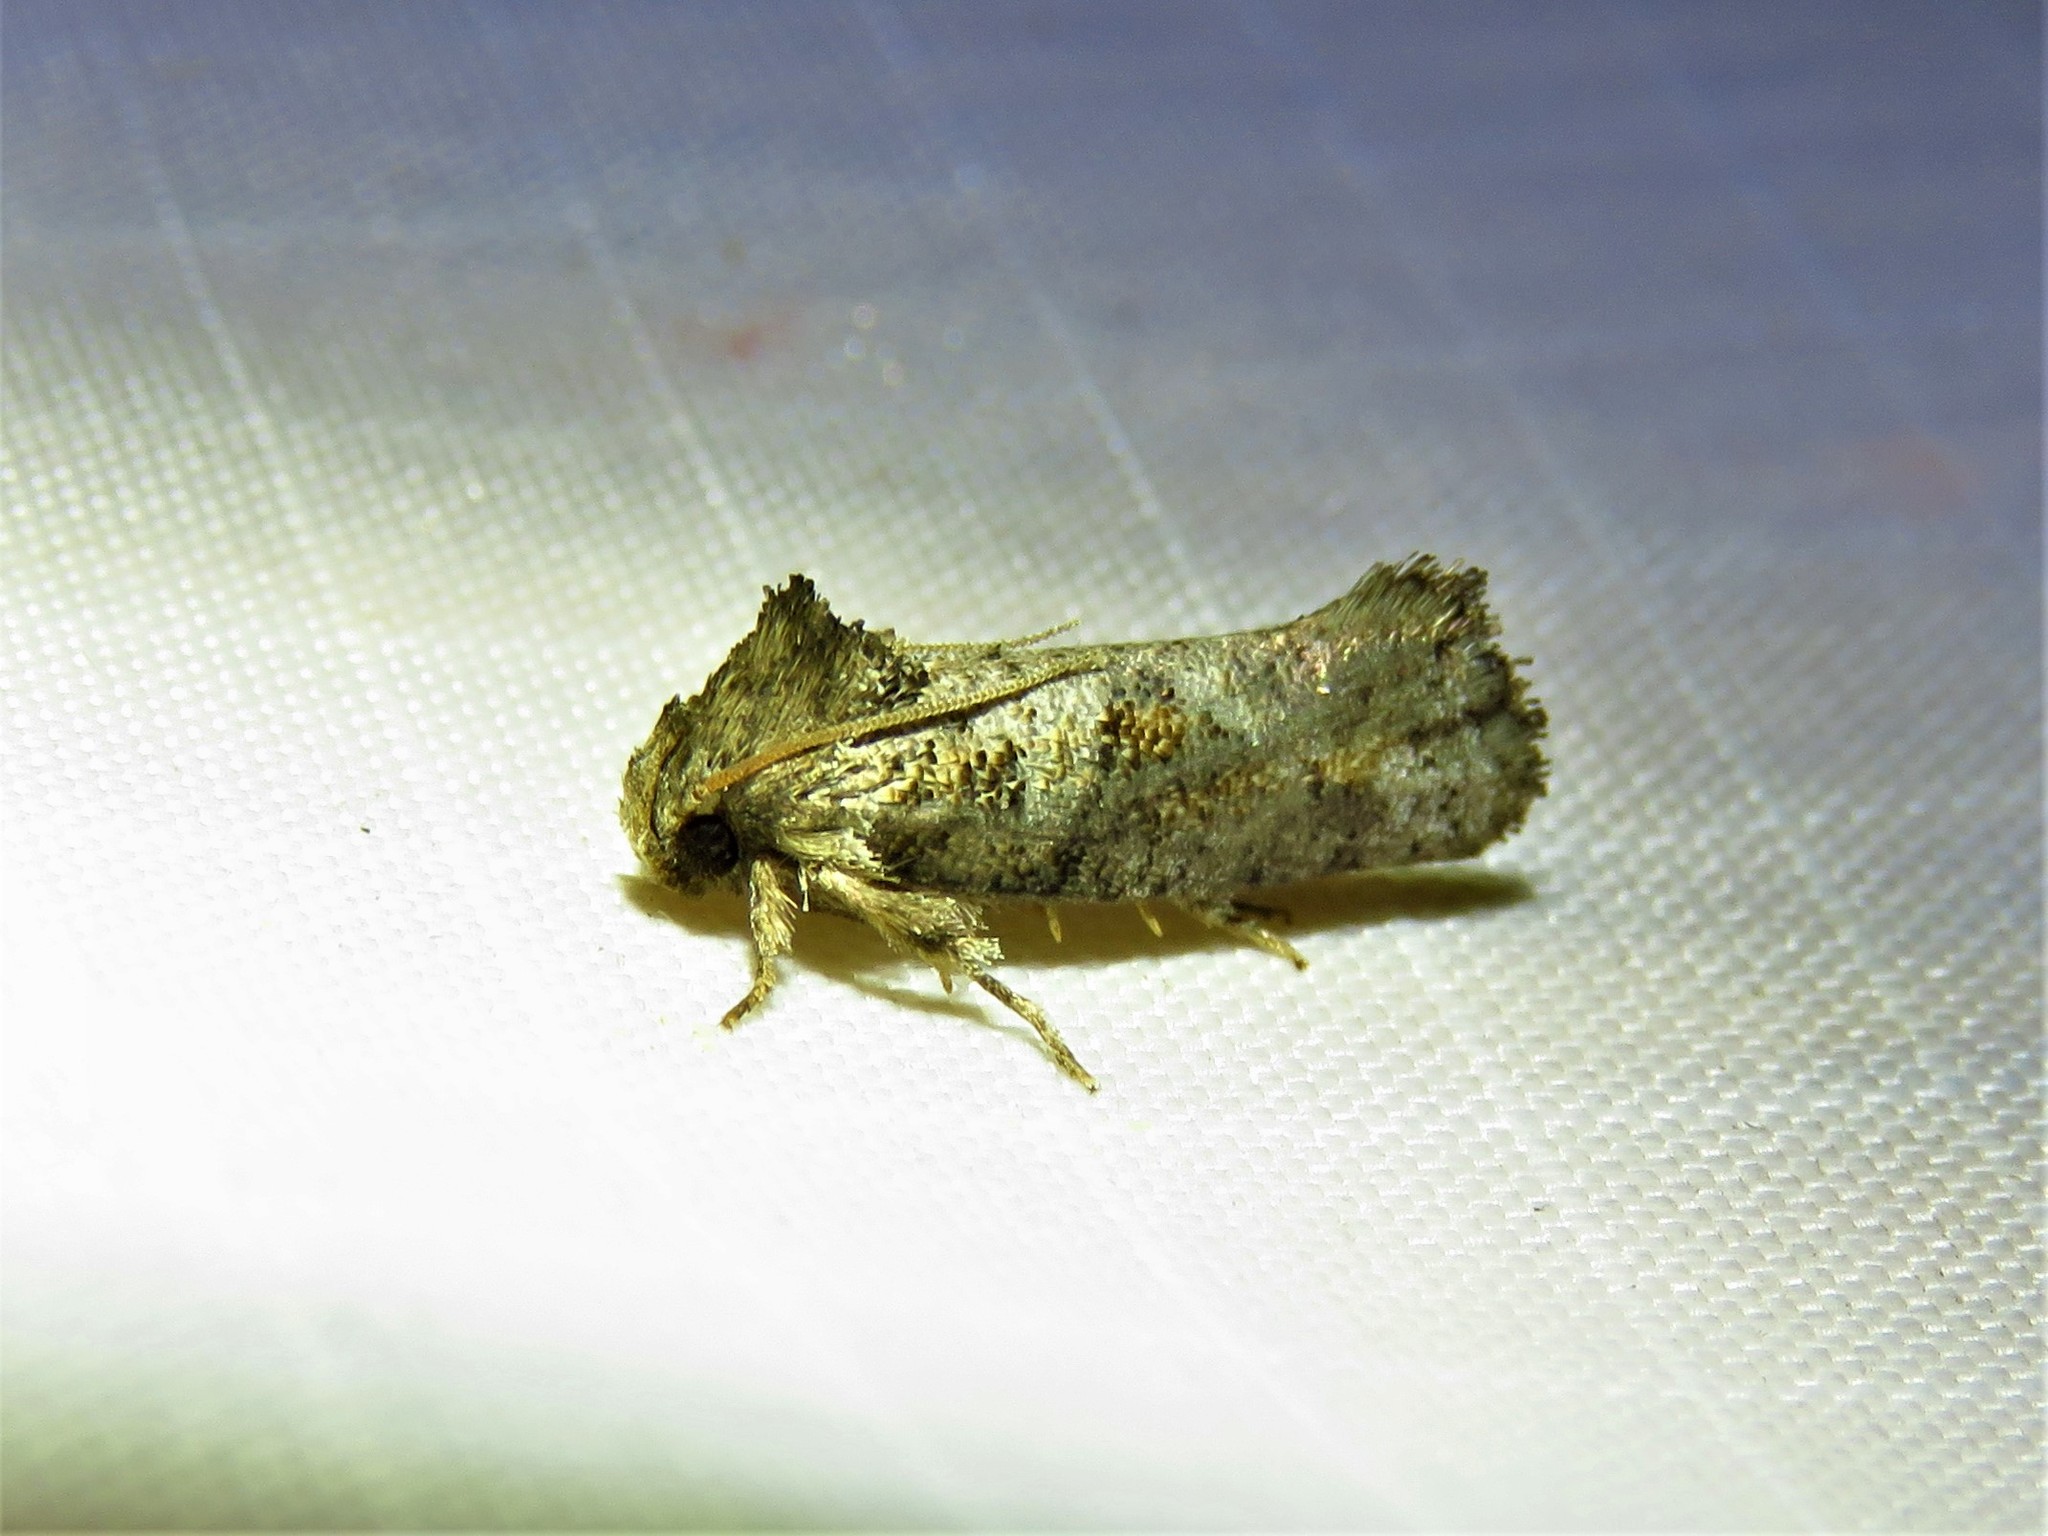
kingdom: Animalia
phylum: Arthropoda
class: Insecta
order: Lepidoptera
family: Tineidae
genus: Acrolophus
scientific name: Acrolophus piger
